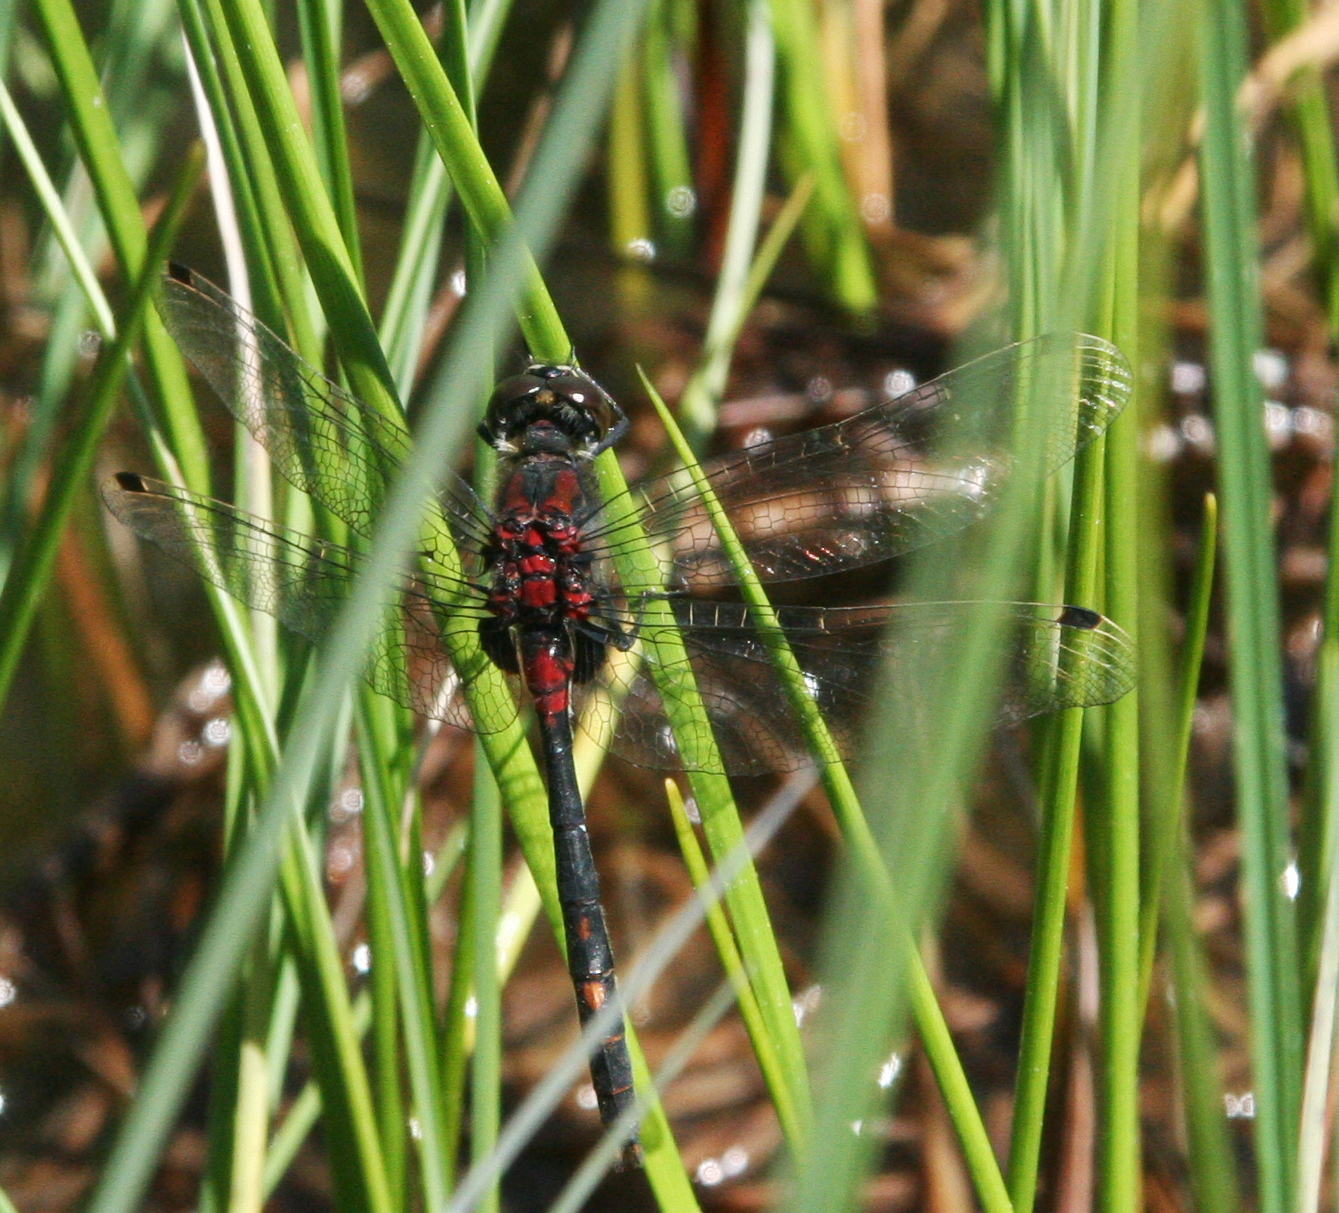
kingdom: Animalia
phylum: Arthropoda
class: Insecta
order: Odonata
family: Libellulidae
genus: Leucorrhinia
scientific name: Leucorrhinia dubia
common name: White-faced darter
